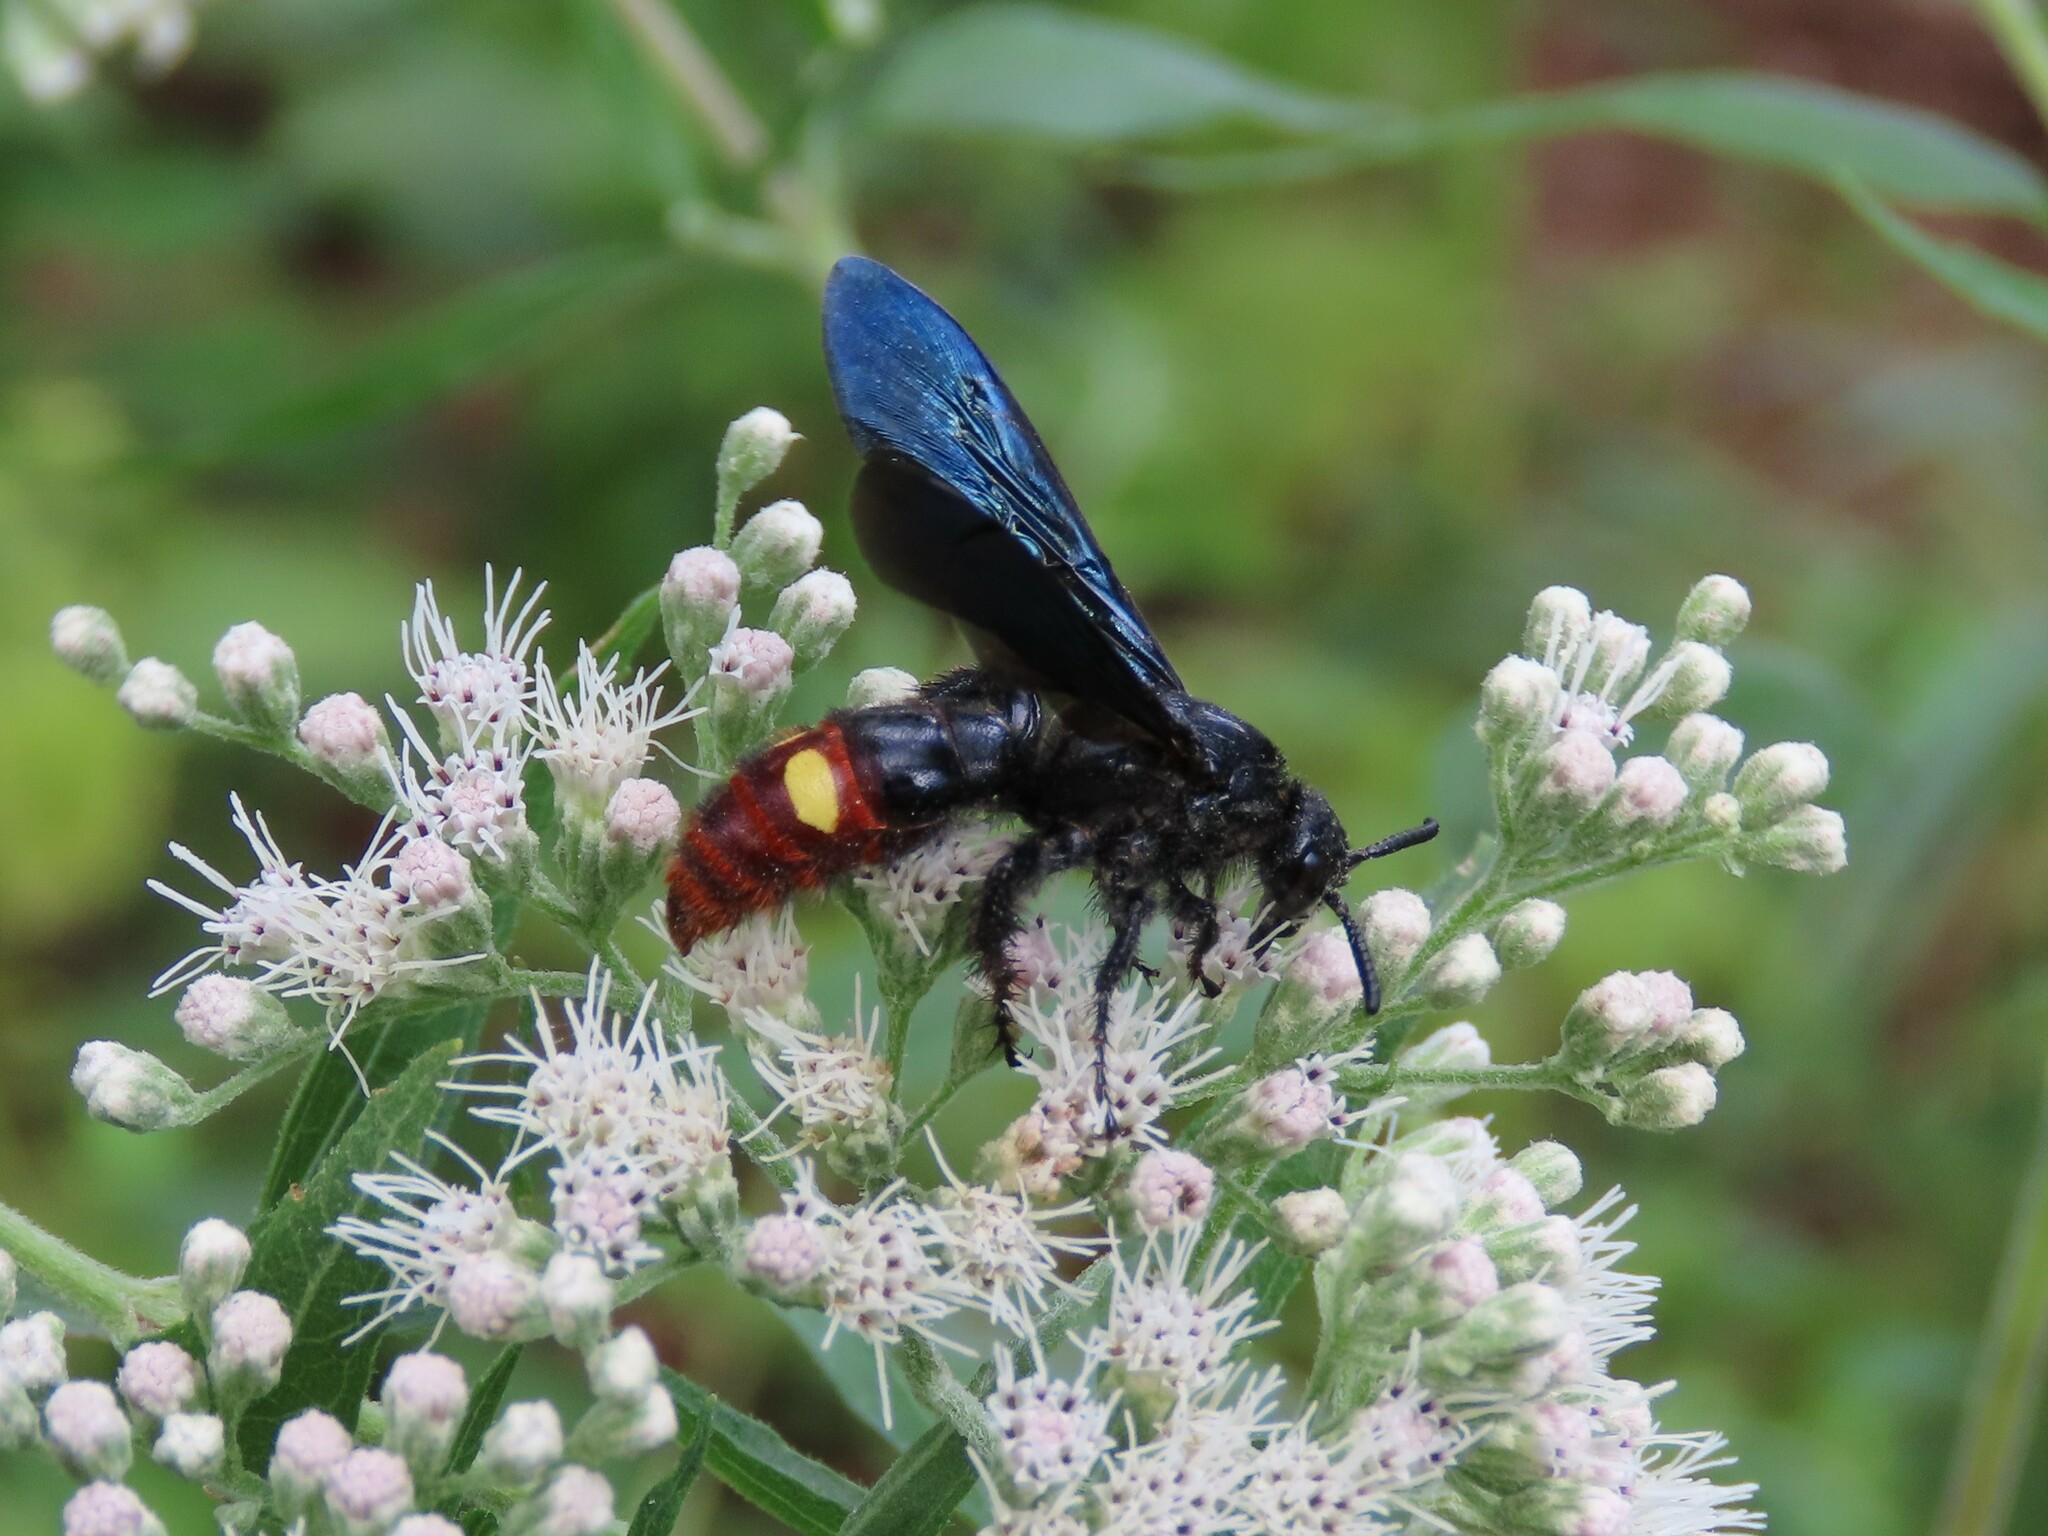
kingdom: Animalia
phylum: Arthropoda
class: Insecta
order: Hymenoptera
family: Scoliidae
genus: Scolia
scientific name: Scolia dubia
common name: Blue-winged scoliid wasp
